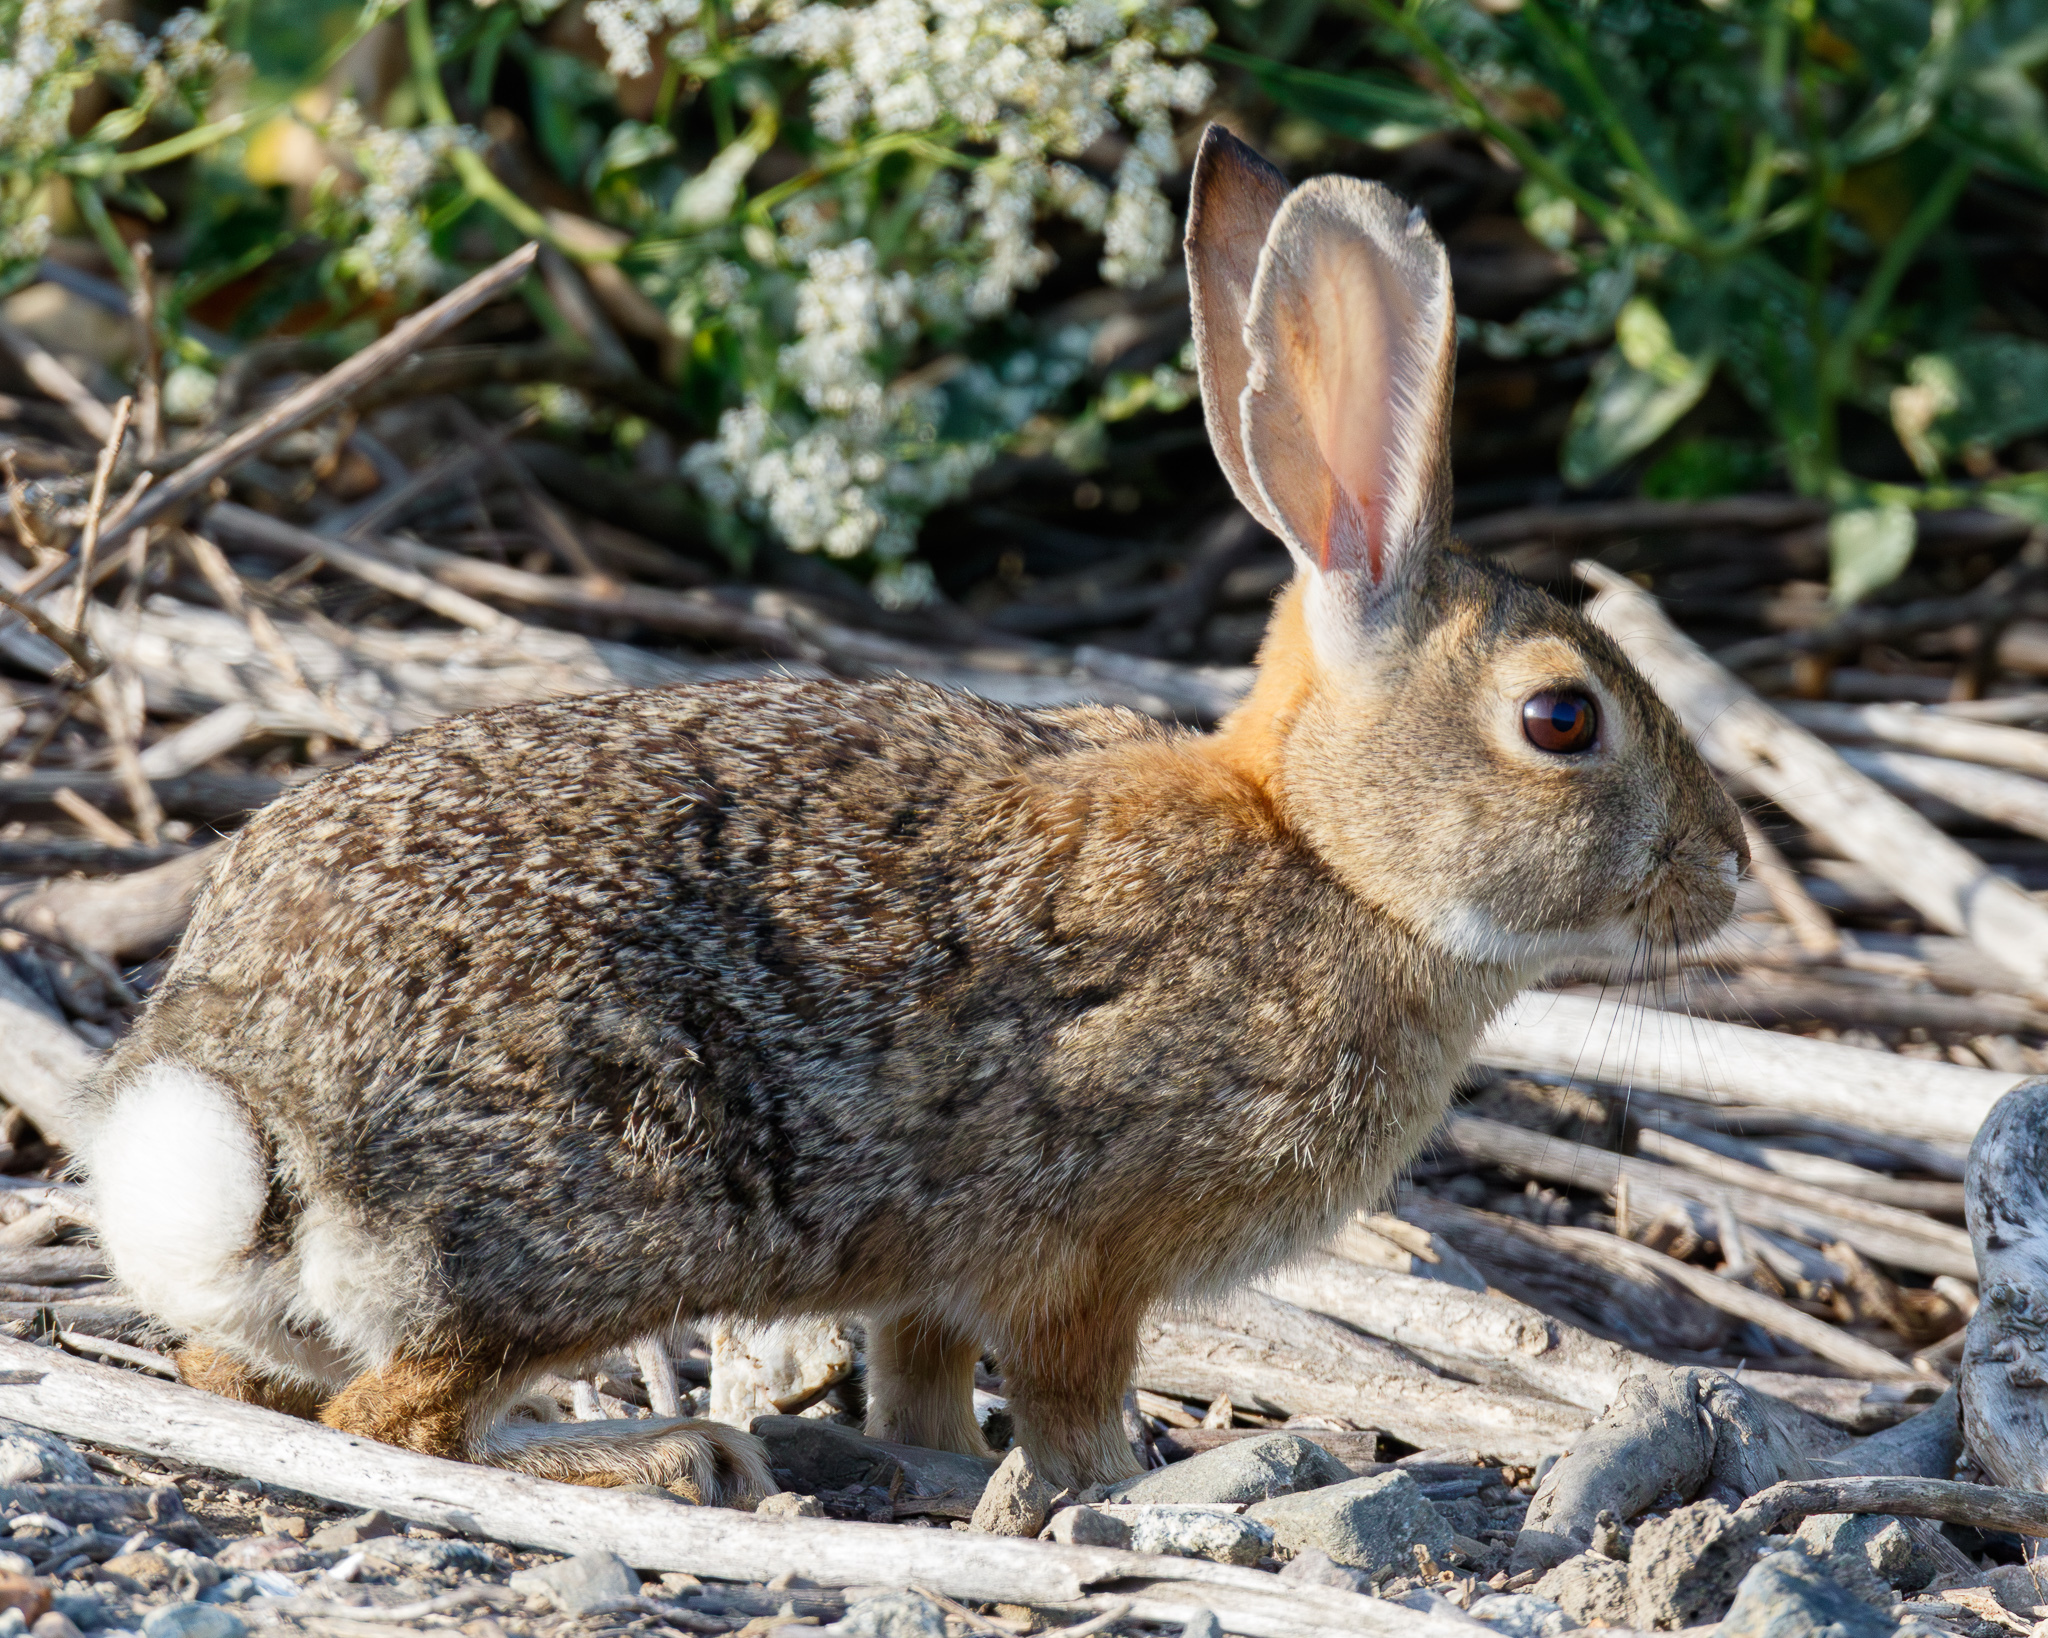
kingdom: Animalia
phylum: Chordata
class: Mammalia
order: Lagomorpha
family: Leporidae
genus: Sylvilagus
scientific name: Sylvilagus audubonii
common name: Desert cottontail
